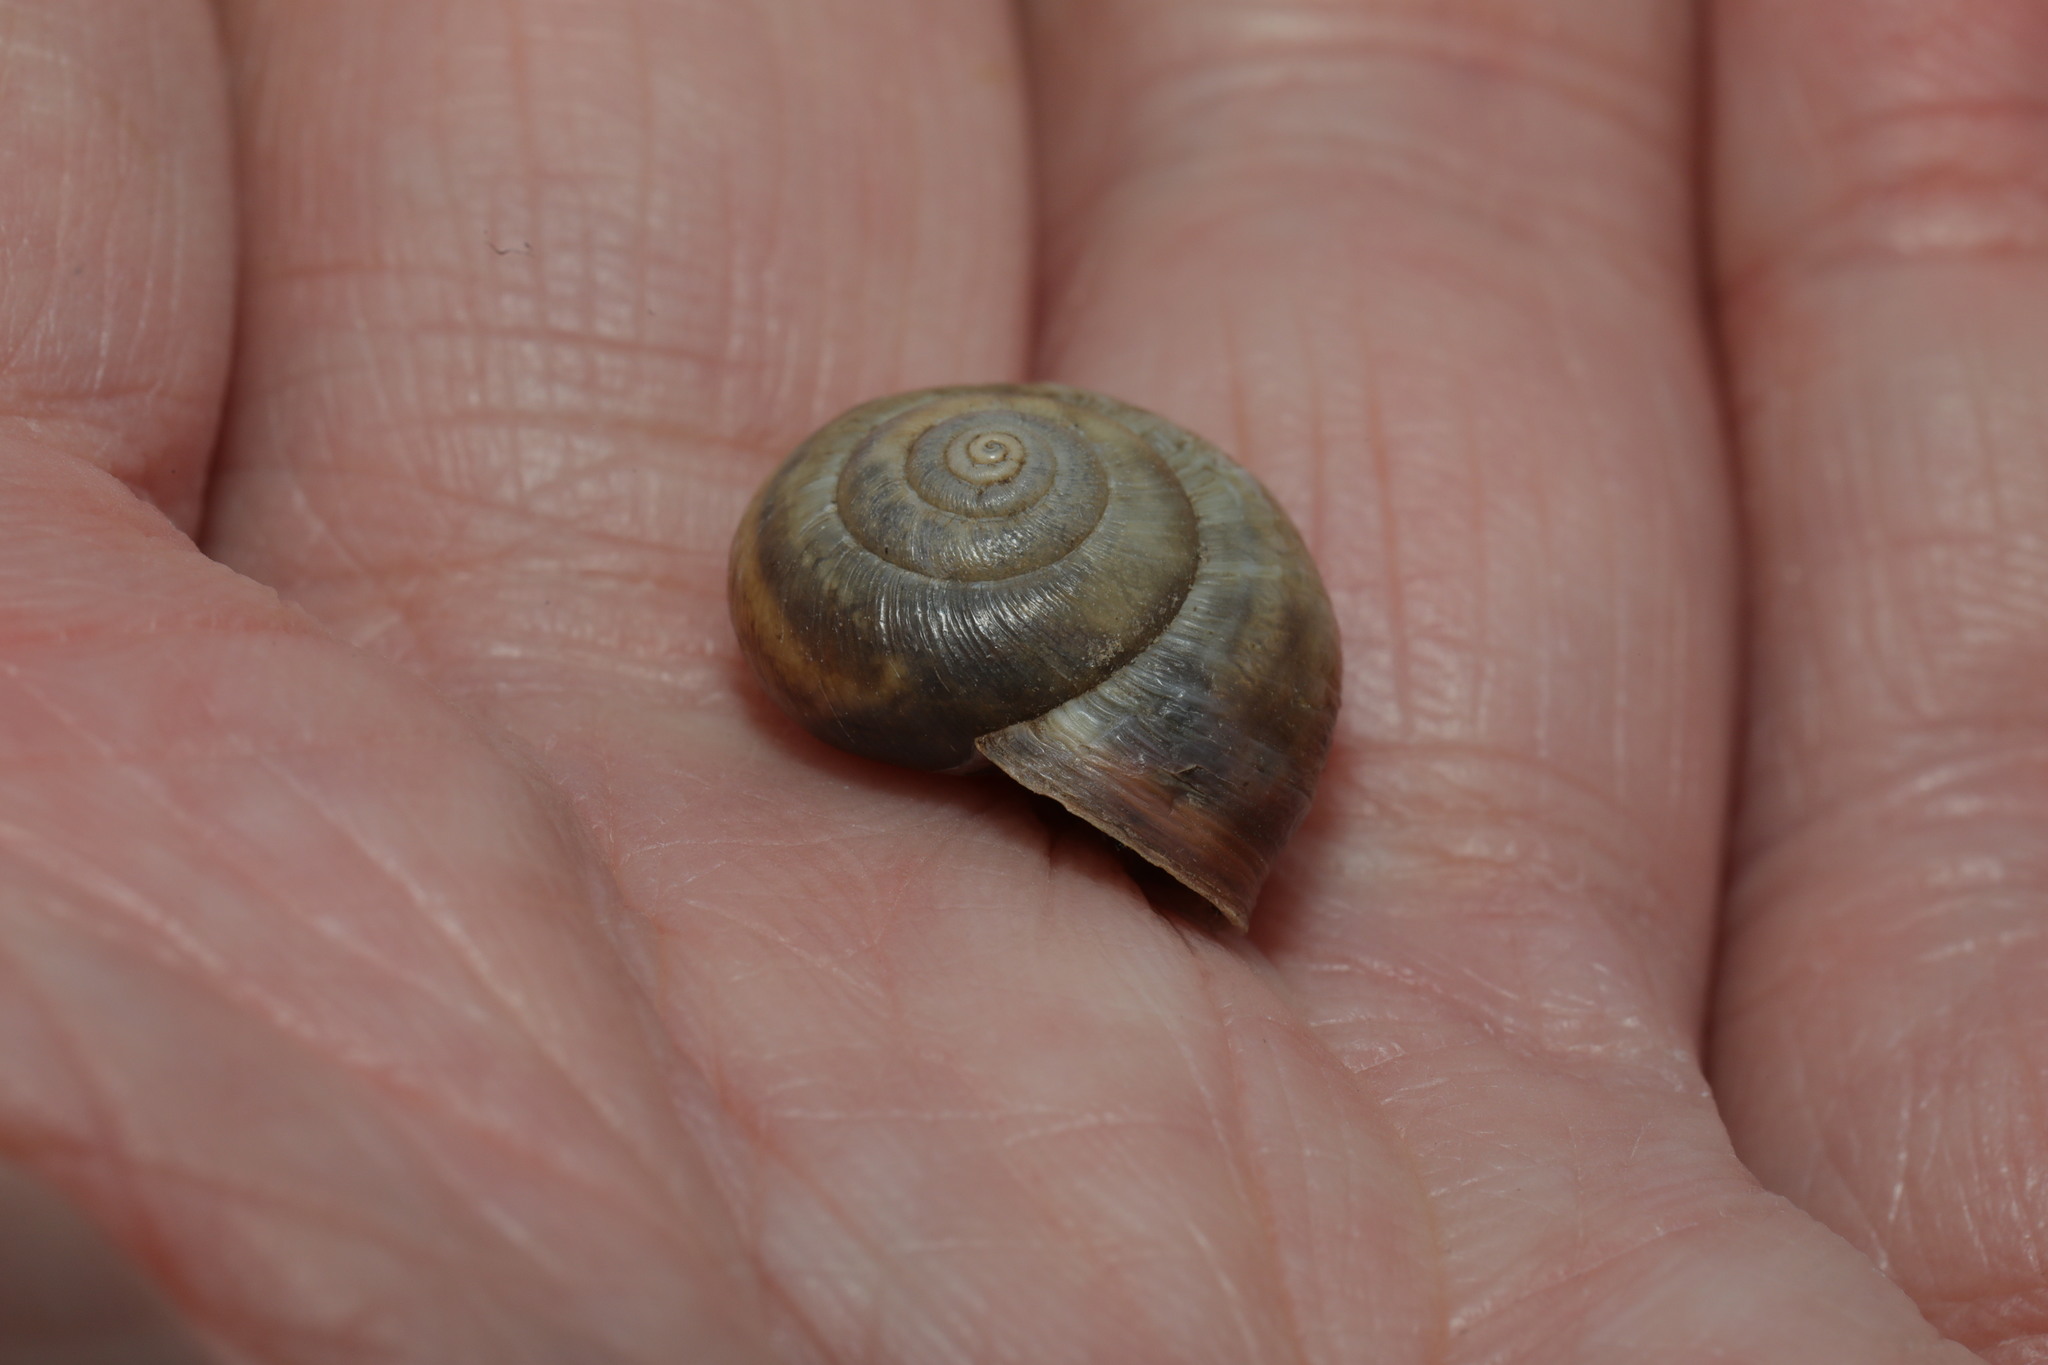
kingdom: Animalia
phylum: Mollusca
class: Gastropoda
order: Stylommatophora
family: Hygromiidae
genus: Monacha
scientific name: Monacha cantiana
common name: Kentish snail
